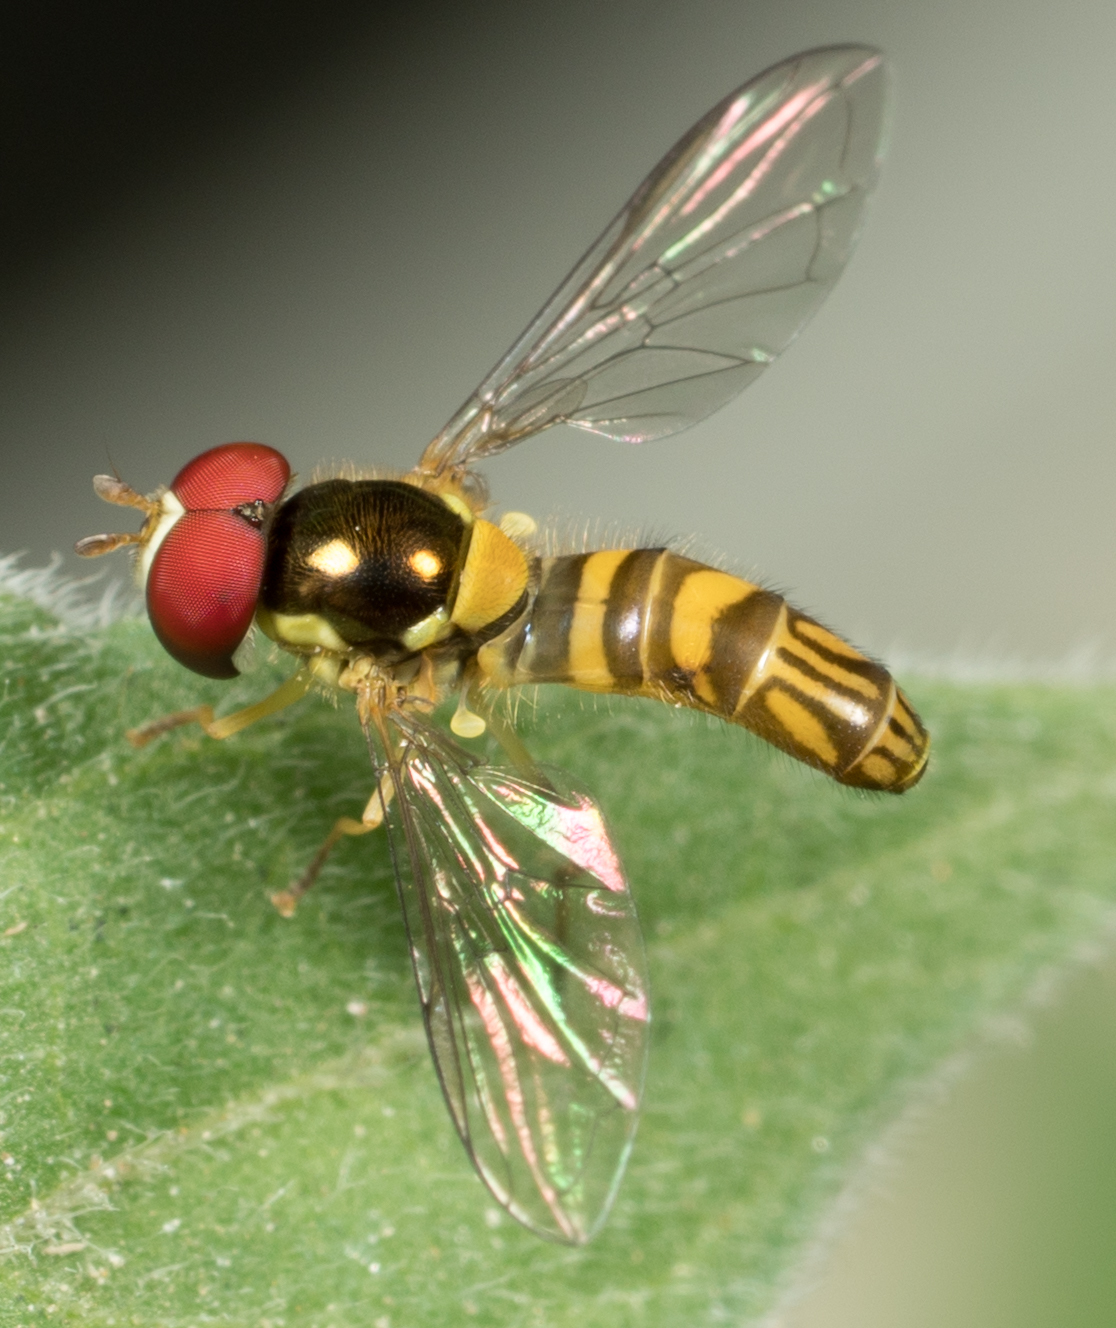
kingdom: Animalia
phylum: Arthropoda
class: Insecta
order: Diptera
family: Syrphidae
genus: Allograpta
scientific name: Allograpta obliqua
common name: Common oblique syrphid
